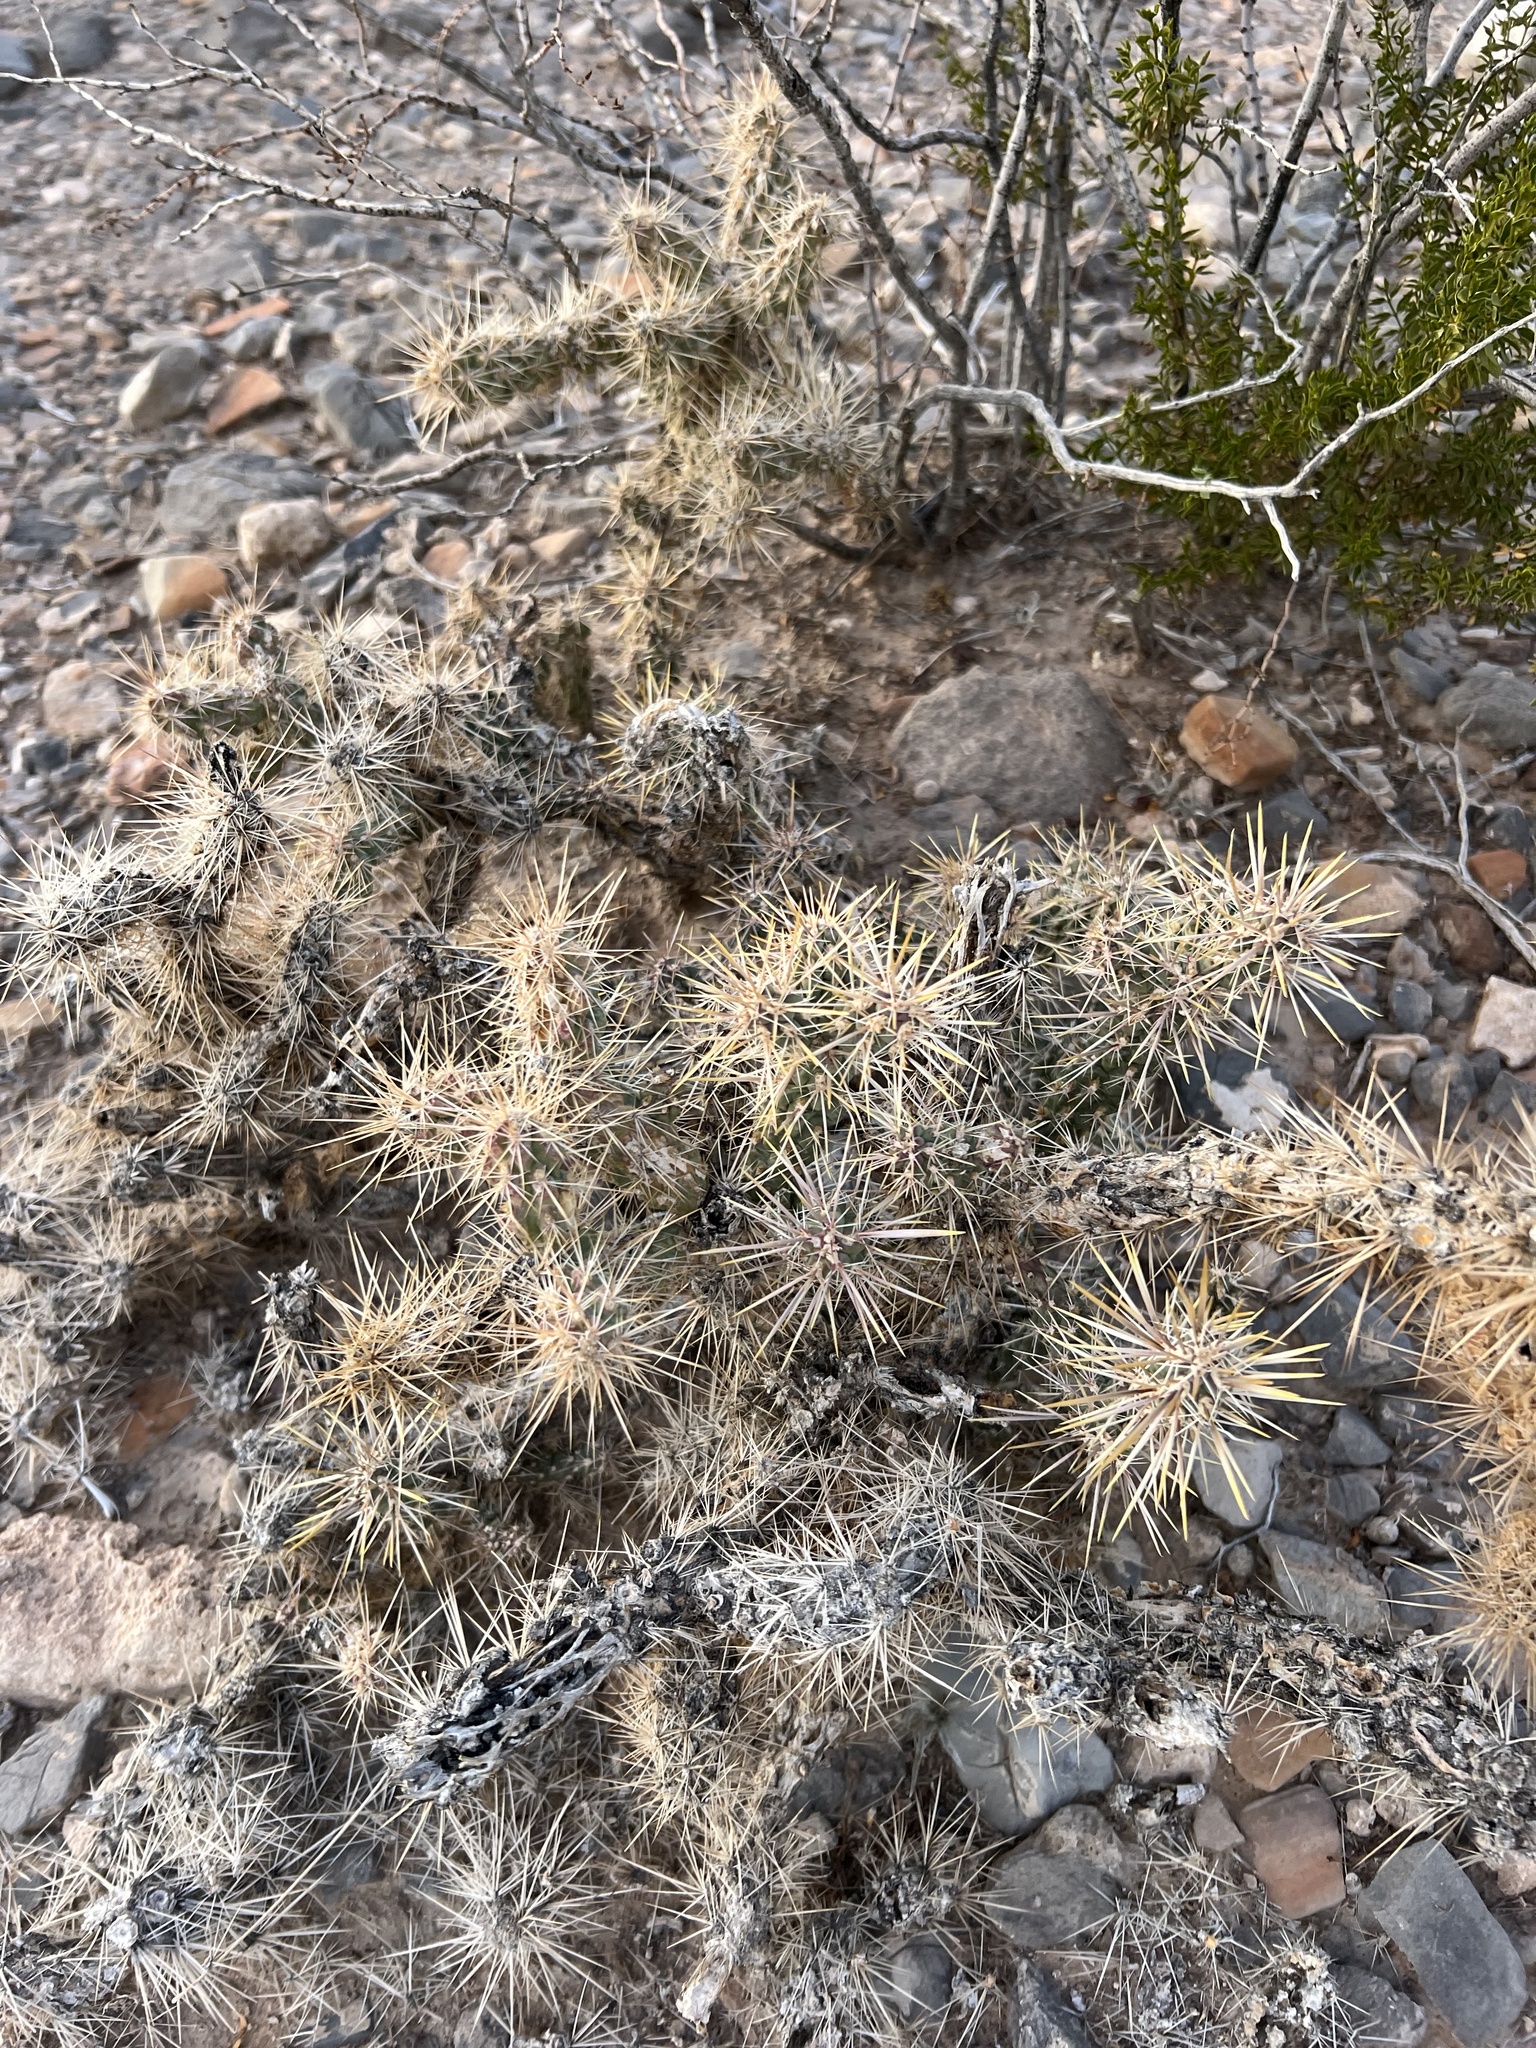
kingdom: Plantae
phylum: Tracheophyta
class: Magnoliopsida
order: Caryophyllales
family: Cactaceae
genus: Cylindropuntia
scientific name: Cylindropuntia echinocarpa
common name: Ground cholla
